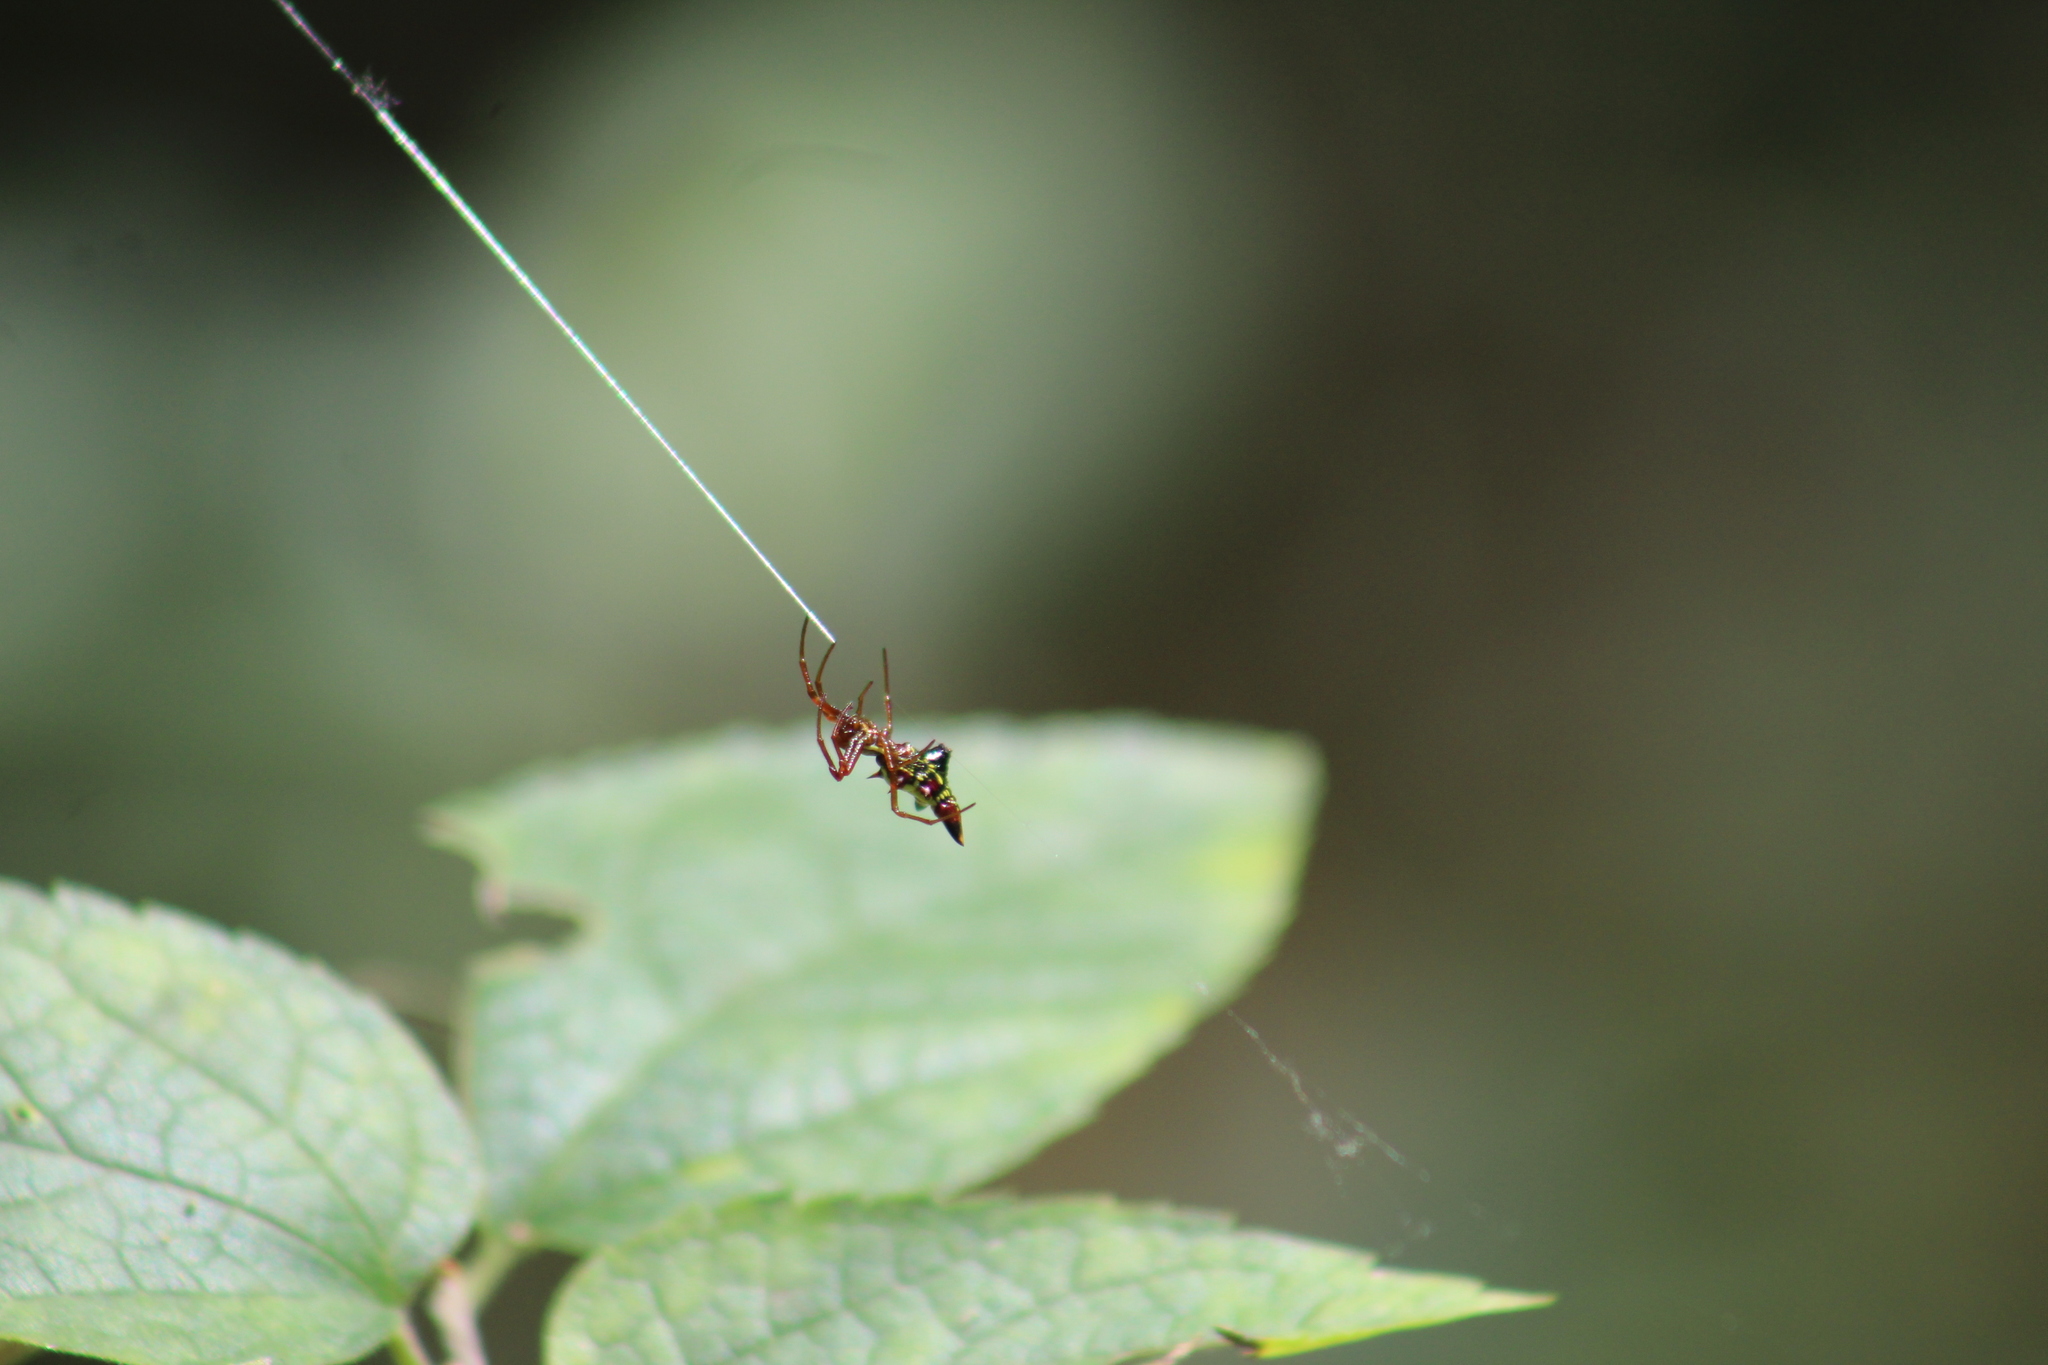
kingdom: Animalia
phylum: Arthropoda
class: Arachnida
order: Araneae
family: Araneidae
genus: Micrathena
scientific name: Micrathena sagittata
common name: Orb weavers
